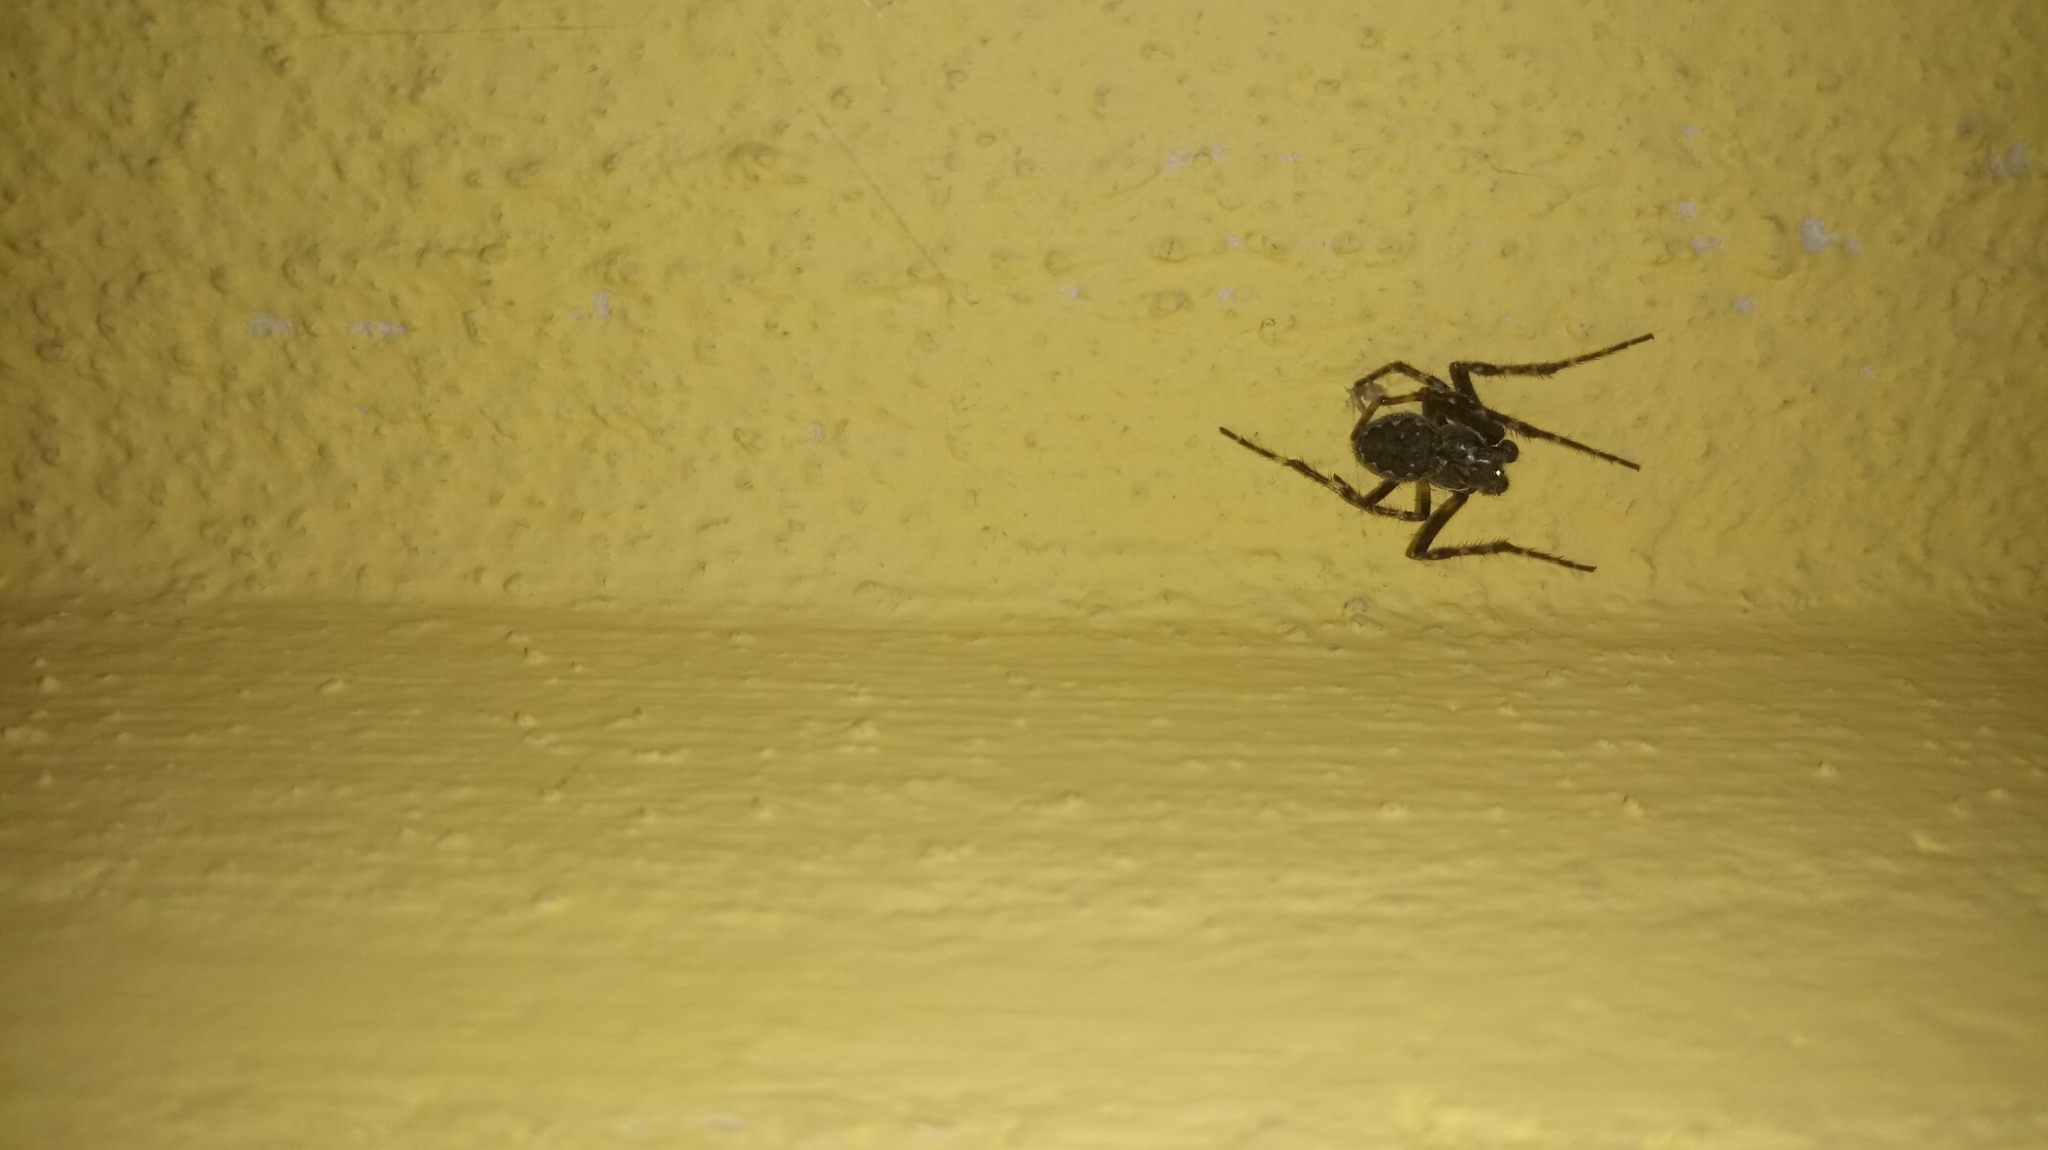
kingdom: Animalia
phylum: Arthropoda
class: Arachnida
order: Araneae
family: Araneidae
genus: Nuctenea
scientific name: Nuctenea umbratica
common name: Toad spider
